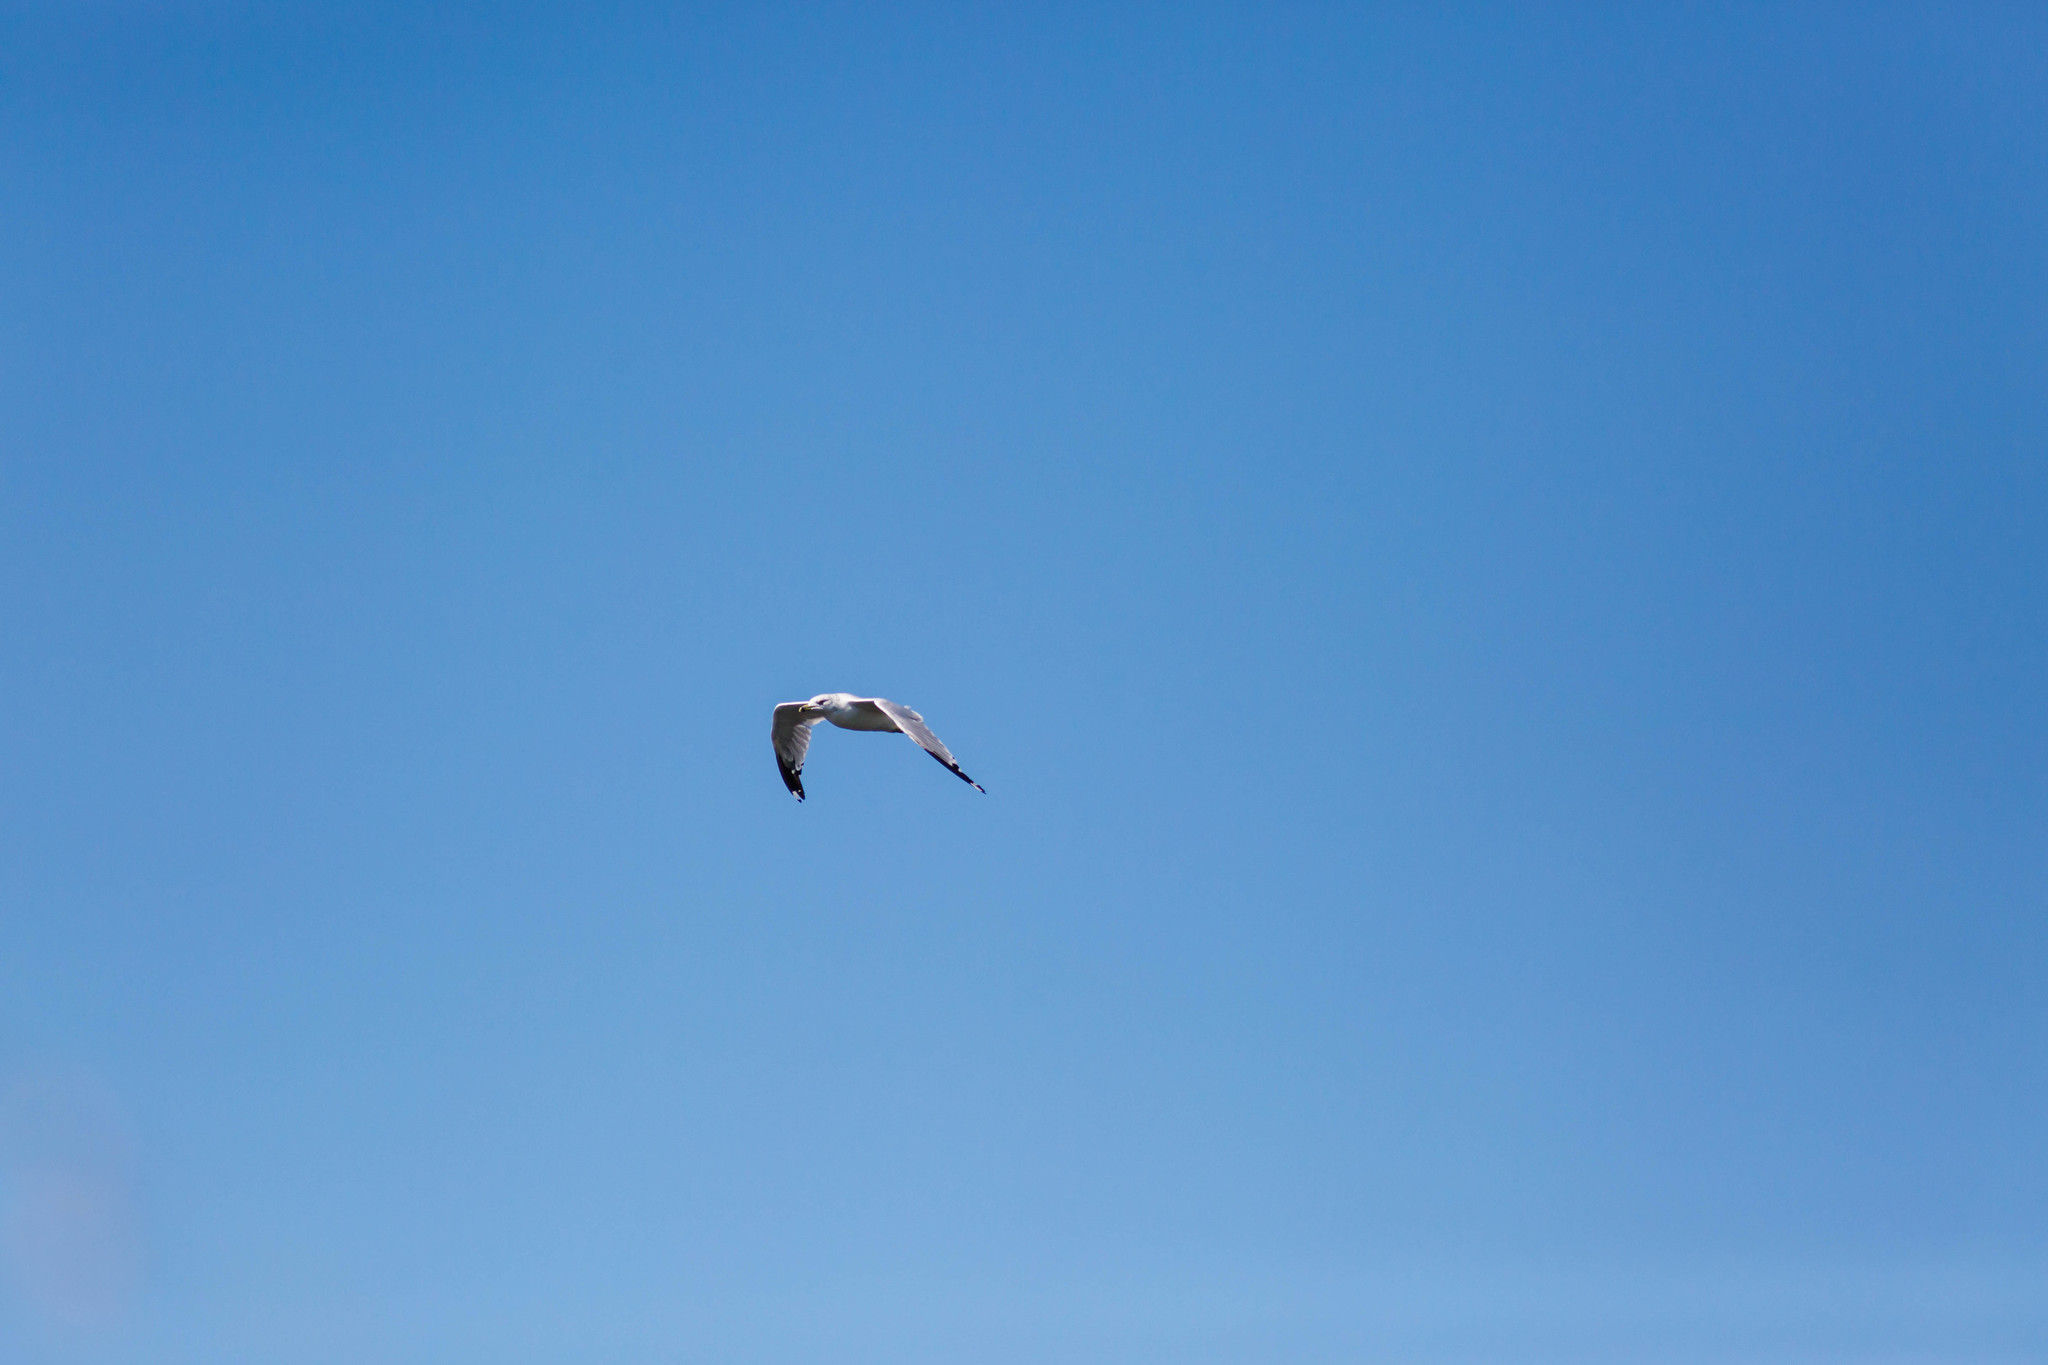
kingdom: Animalia
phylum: Chordata
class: Aves
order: Charadriiformes
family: Laridae
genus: Larus
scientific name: Larus delawarensis
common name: Ring-billed gull
